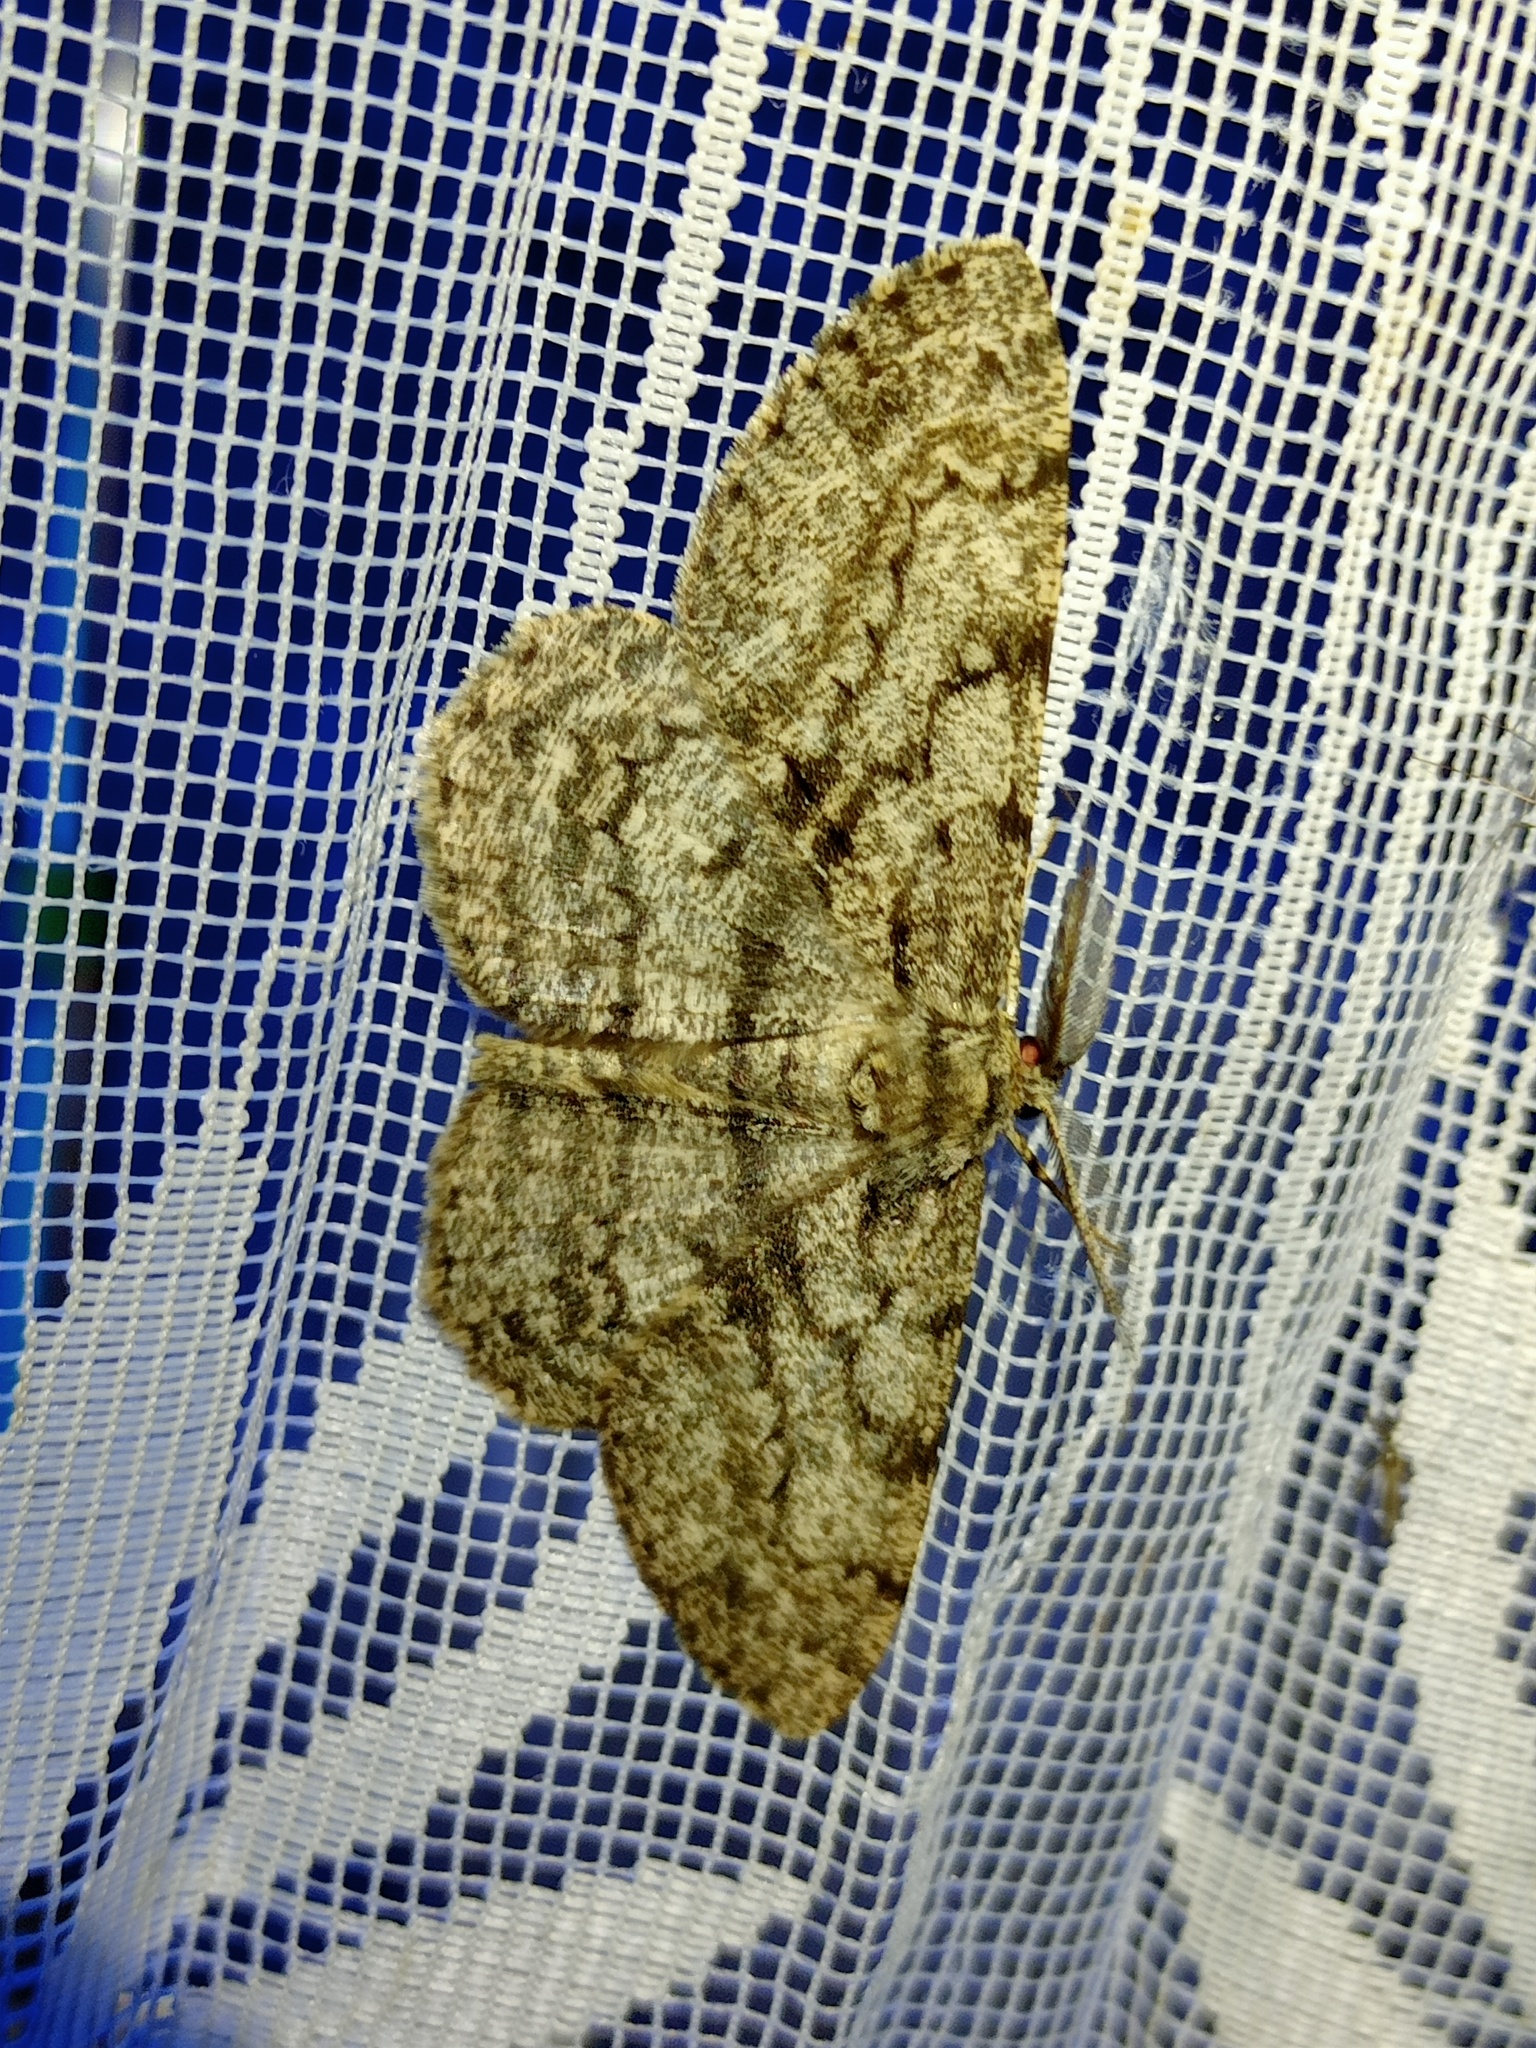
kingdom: Animalia
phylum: Arthropoda
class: Insecta
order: Lepidoptera
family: Geometridae
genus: Hypomecis
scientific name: Hypomecis roboraria
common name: Great oak beauty
